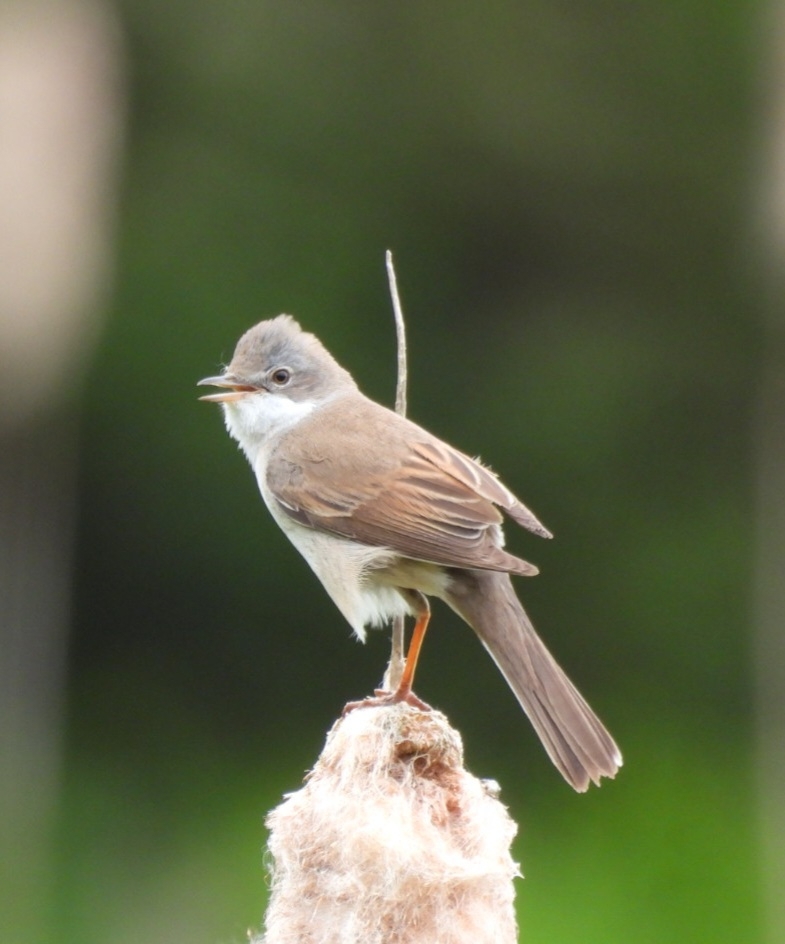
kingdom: Animalia
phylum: Chordata
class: Aves
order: Passeriformes
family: Sylviidae
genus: Sylvia
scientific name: Sylvia communis
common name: Common whitethroat
